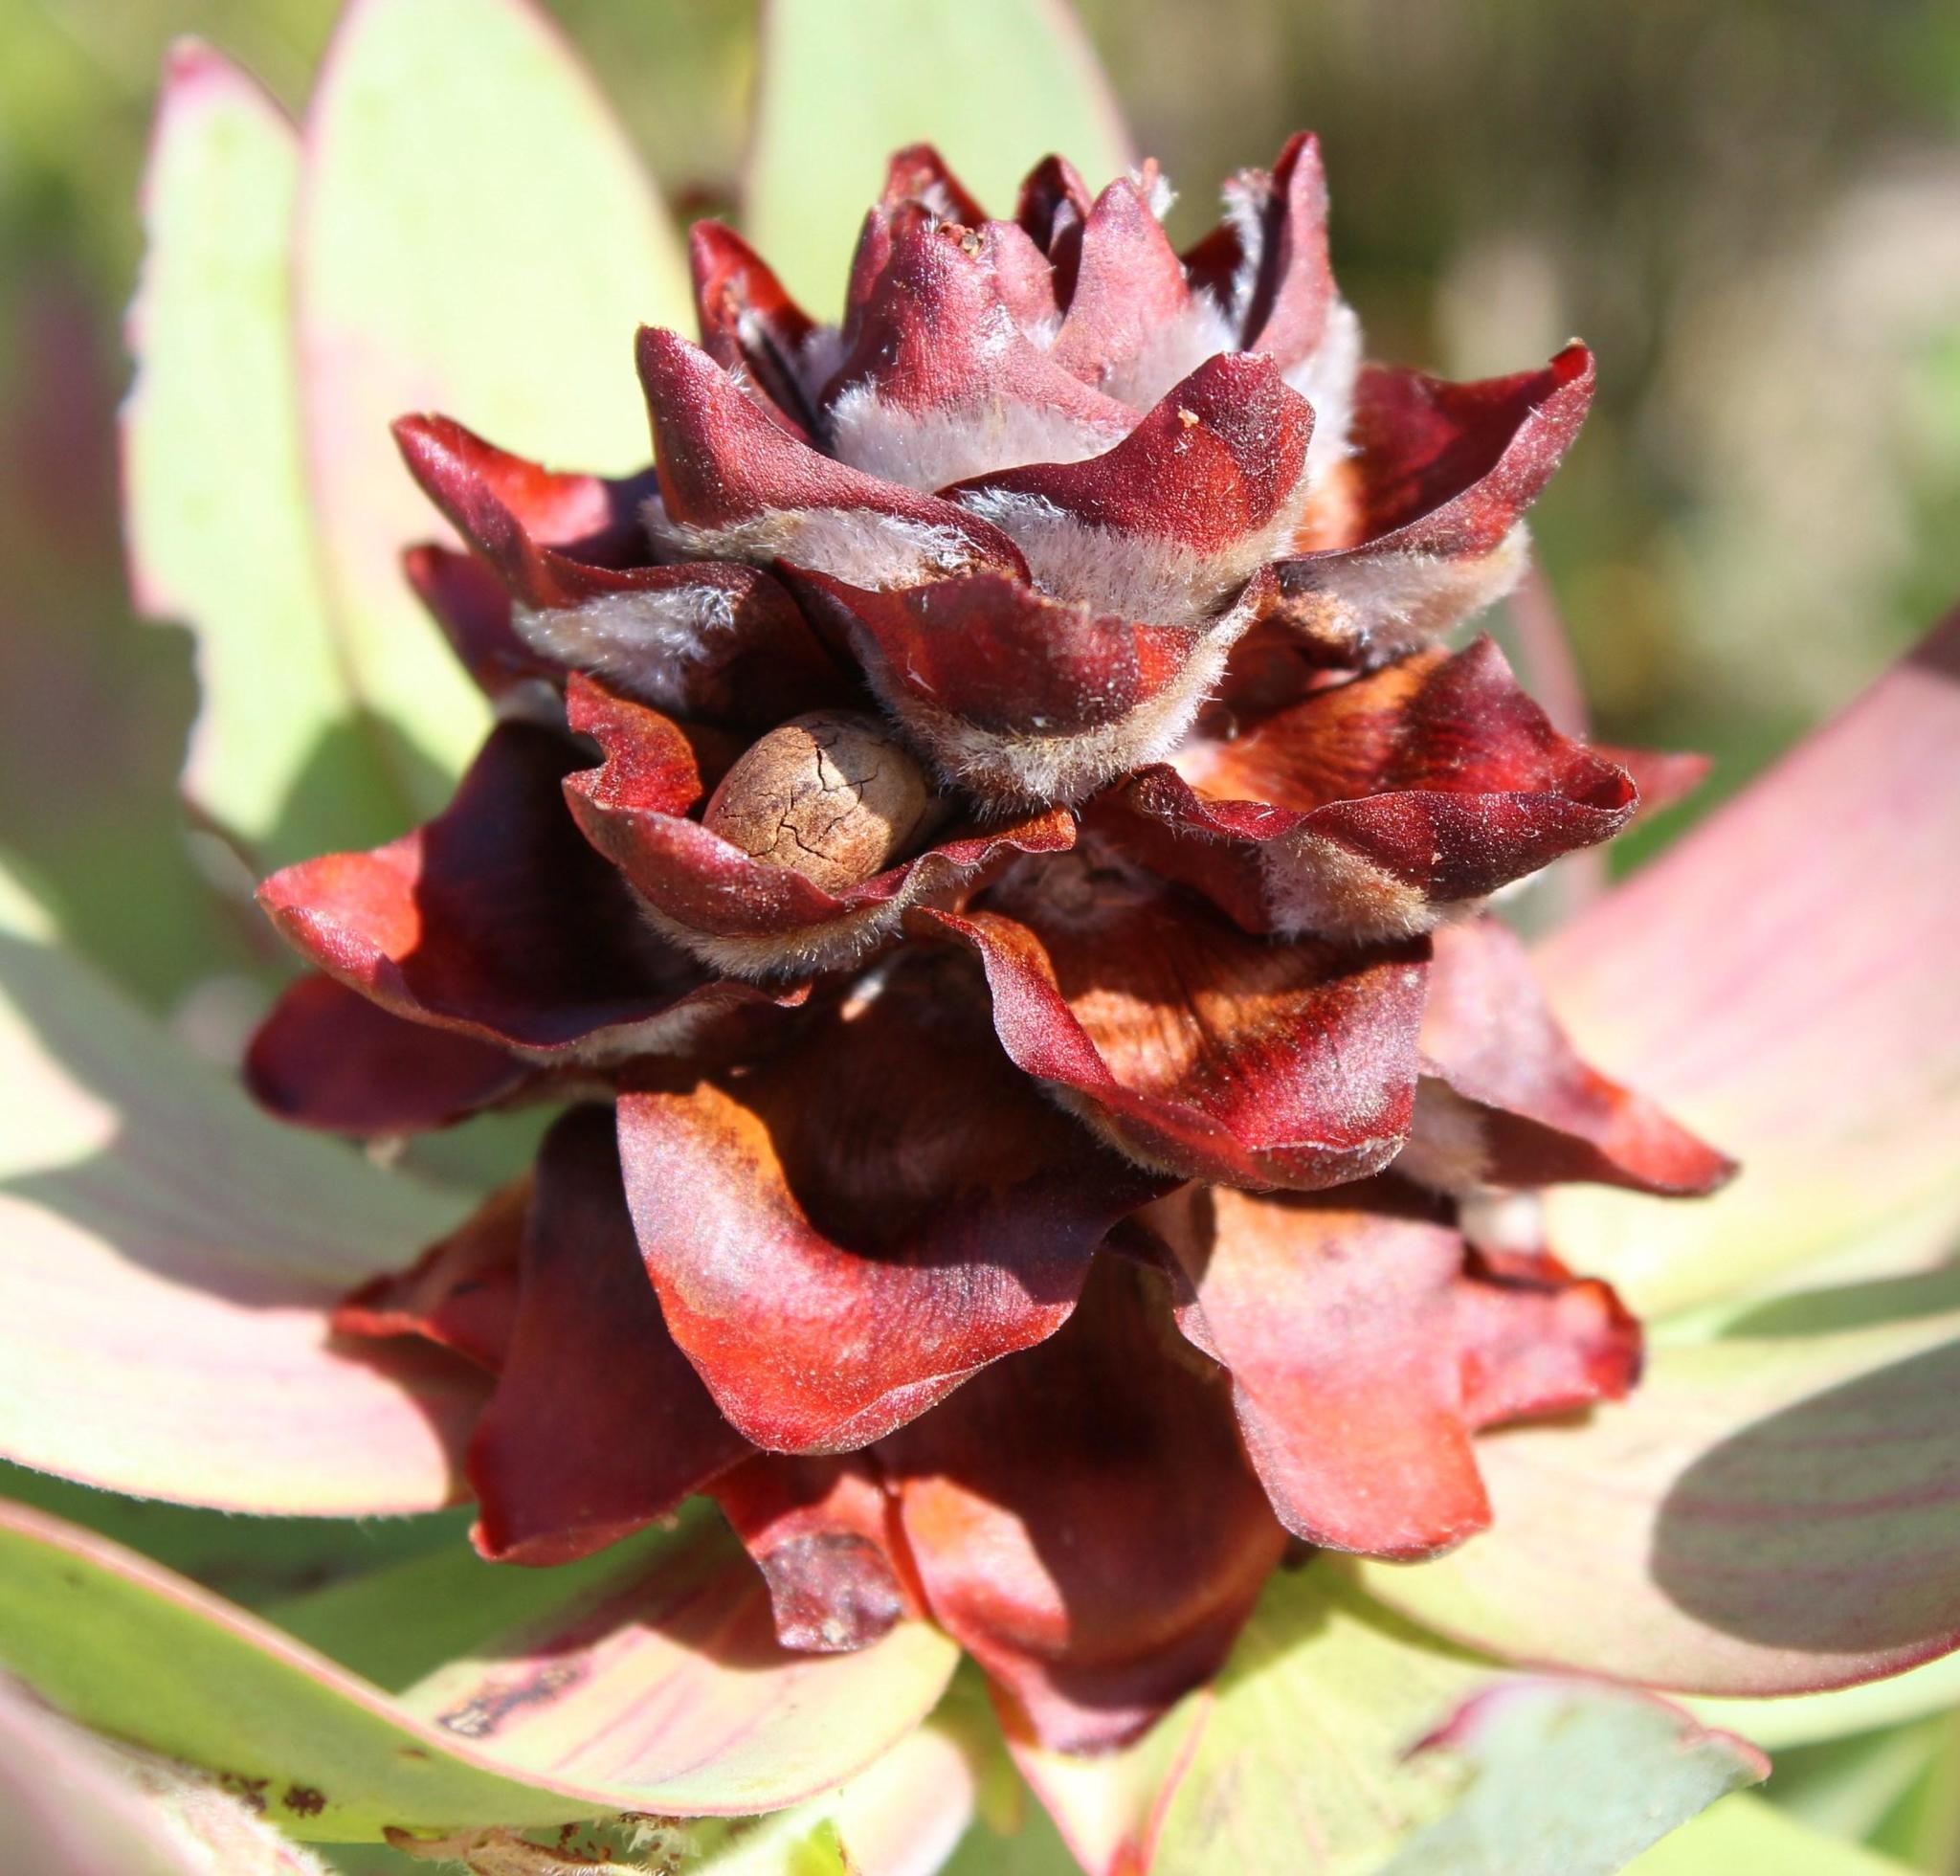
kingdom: Plantae
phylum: Tracheophyta
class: Magnoliopsida
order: Proteales
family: Proteaceae
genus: Leucadendron
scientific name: Leucadendron tinctum
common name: Spicy conebush
